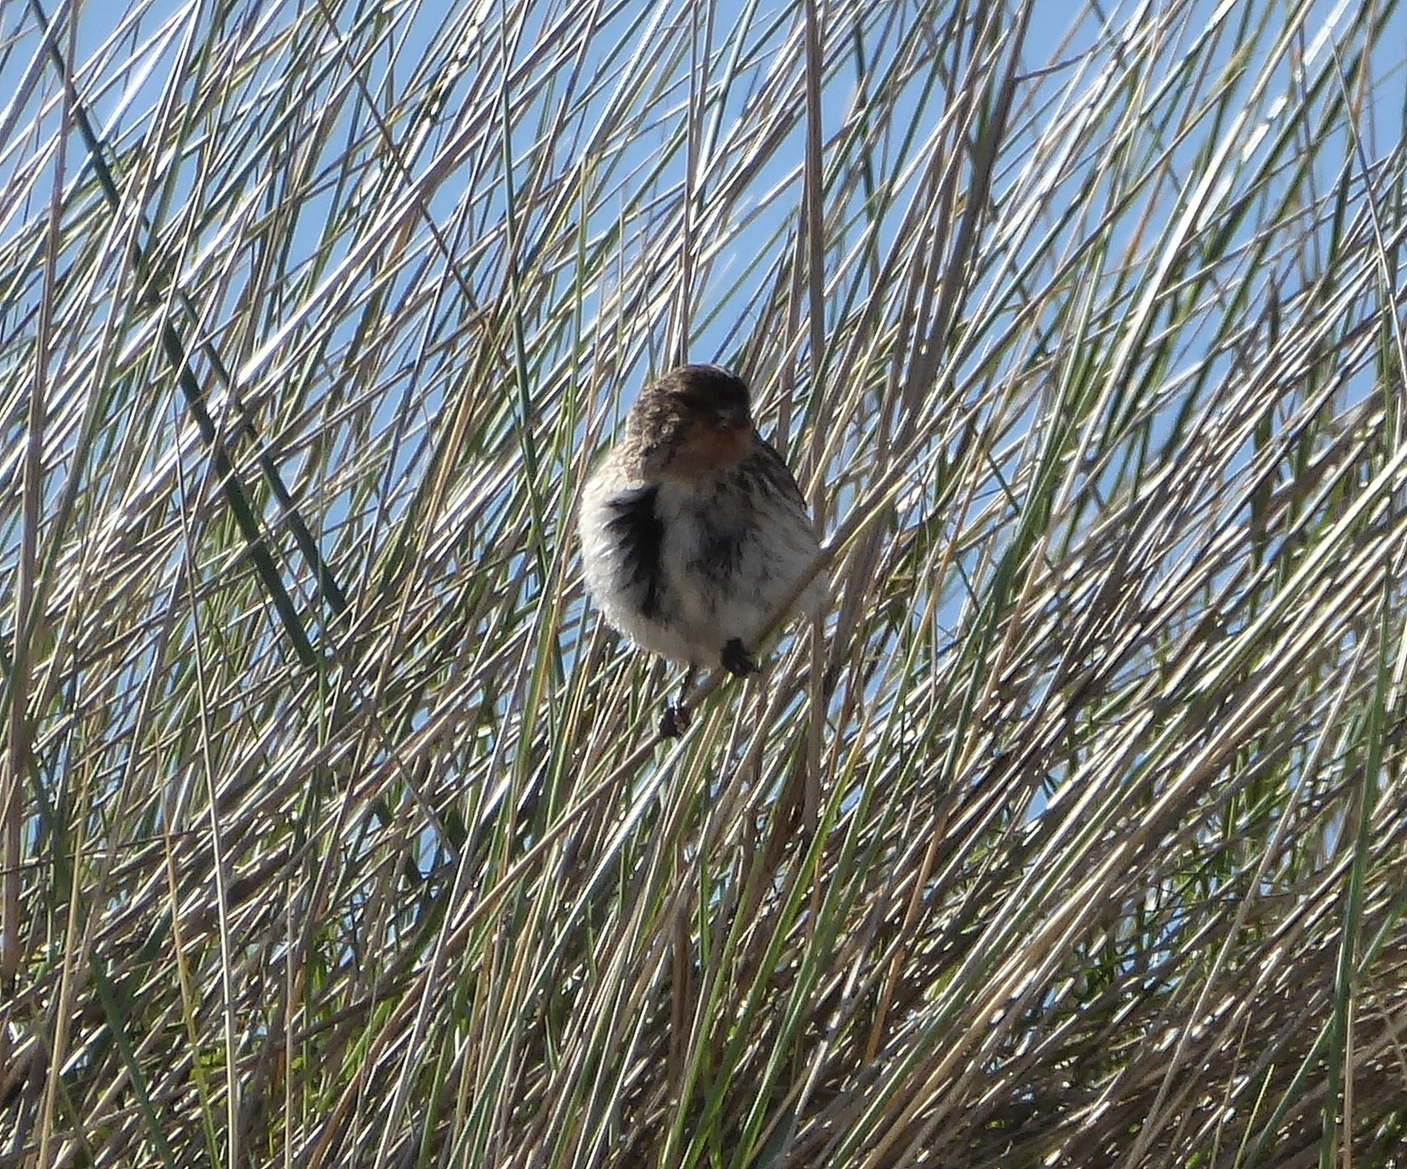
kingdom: Animalia
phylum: Chordata
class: Aves
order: Passeriformes
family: Fringillidae
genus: Linaria
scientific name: Linaria flavirostris
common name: Twite
